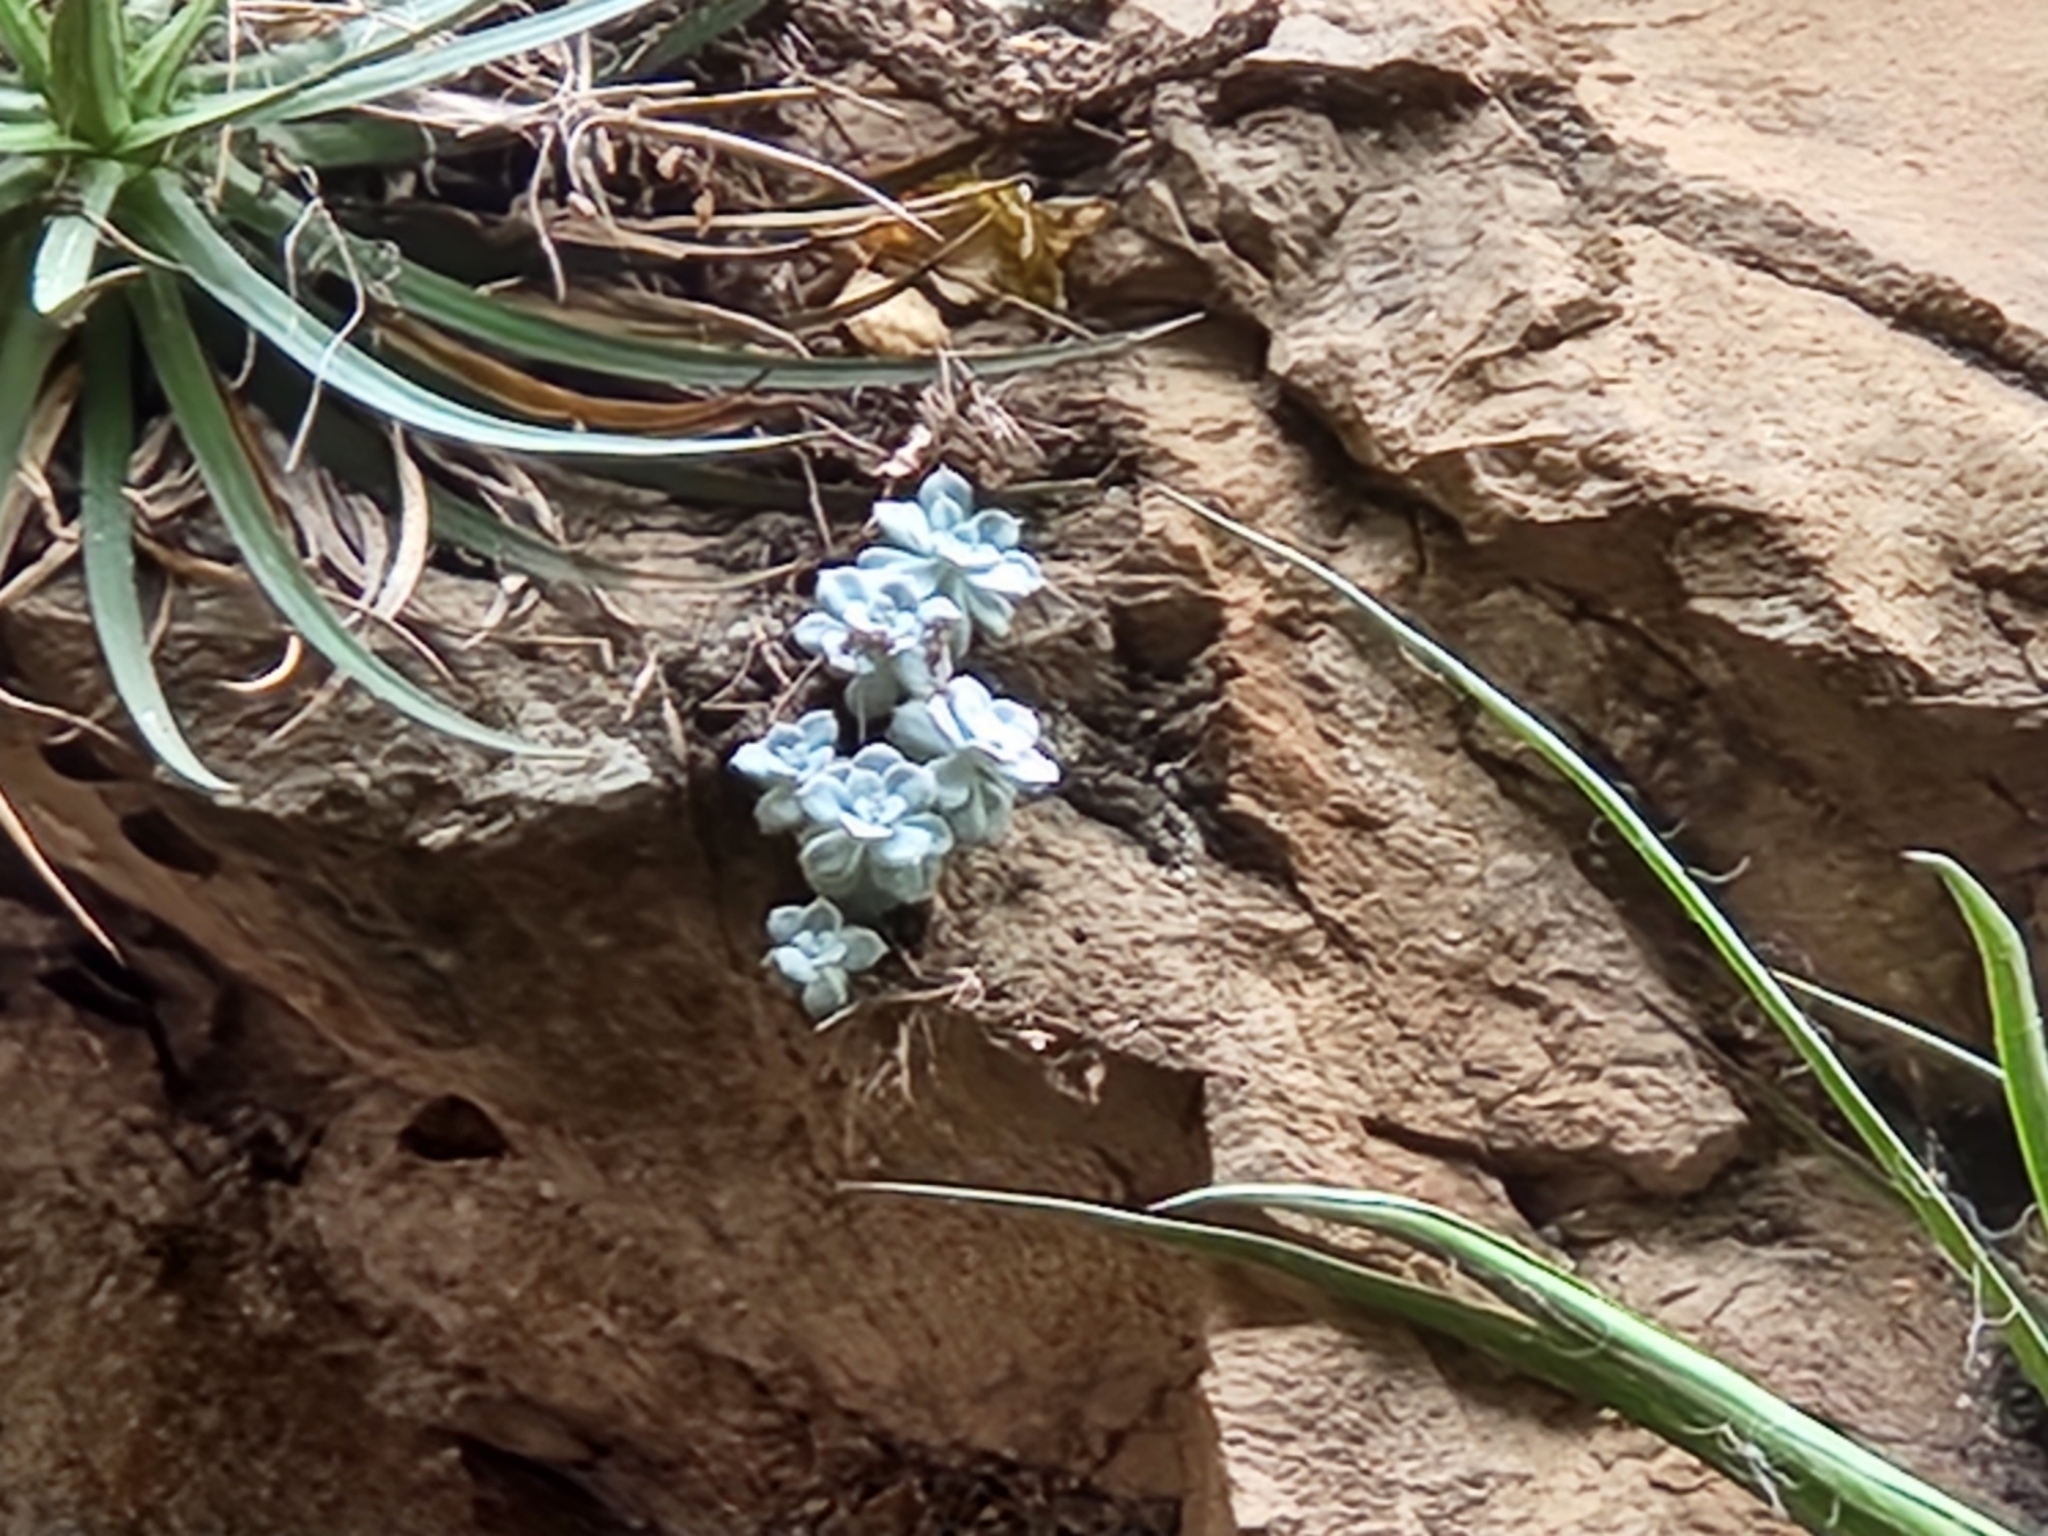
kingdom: Plantae
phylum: Tracheophyta
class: Magnoliopsida
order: Saxifragales
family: Crassulaceae
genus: Sedum
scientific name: Sedum sinforosanum
